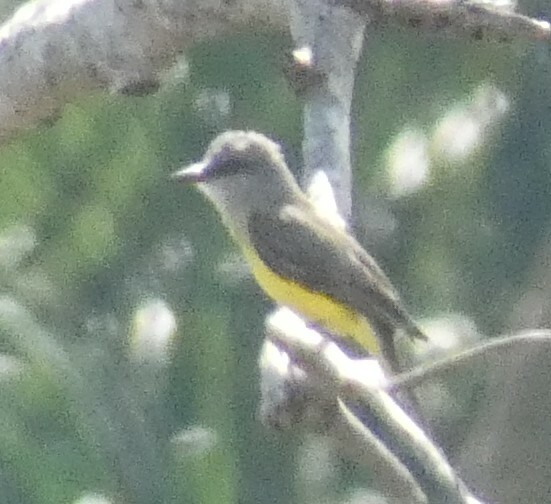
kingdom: Animalia
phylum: Chordata
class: Aves
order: Passeriformes
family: Tyrannidae
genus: Tyrannus
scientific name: Tyrannus melancholicus
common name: Tropical kingbird
